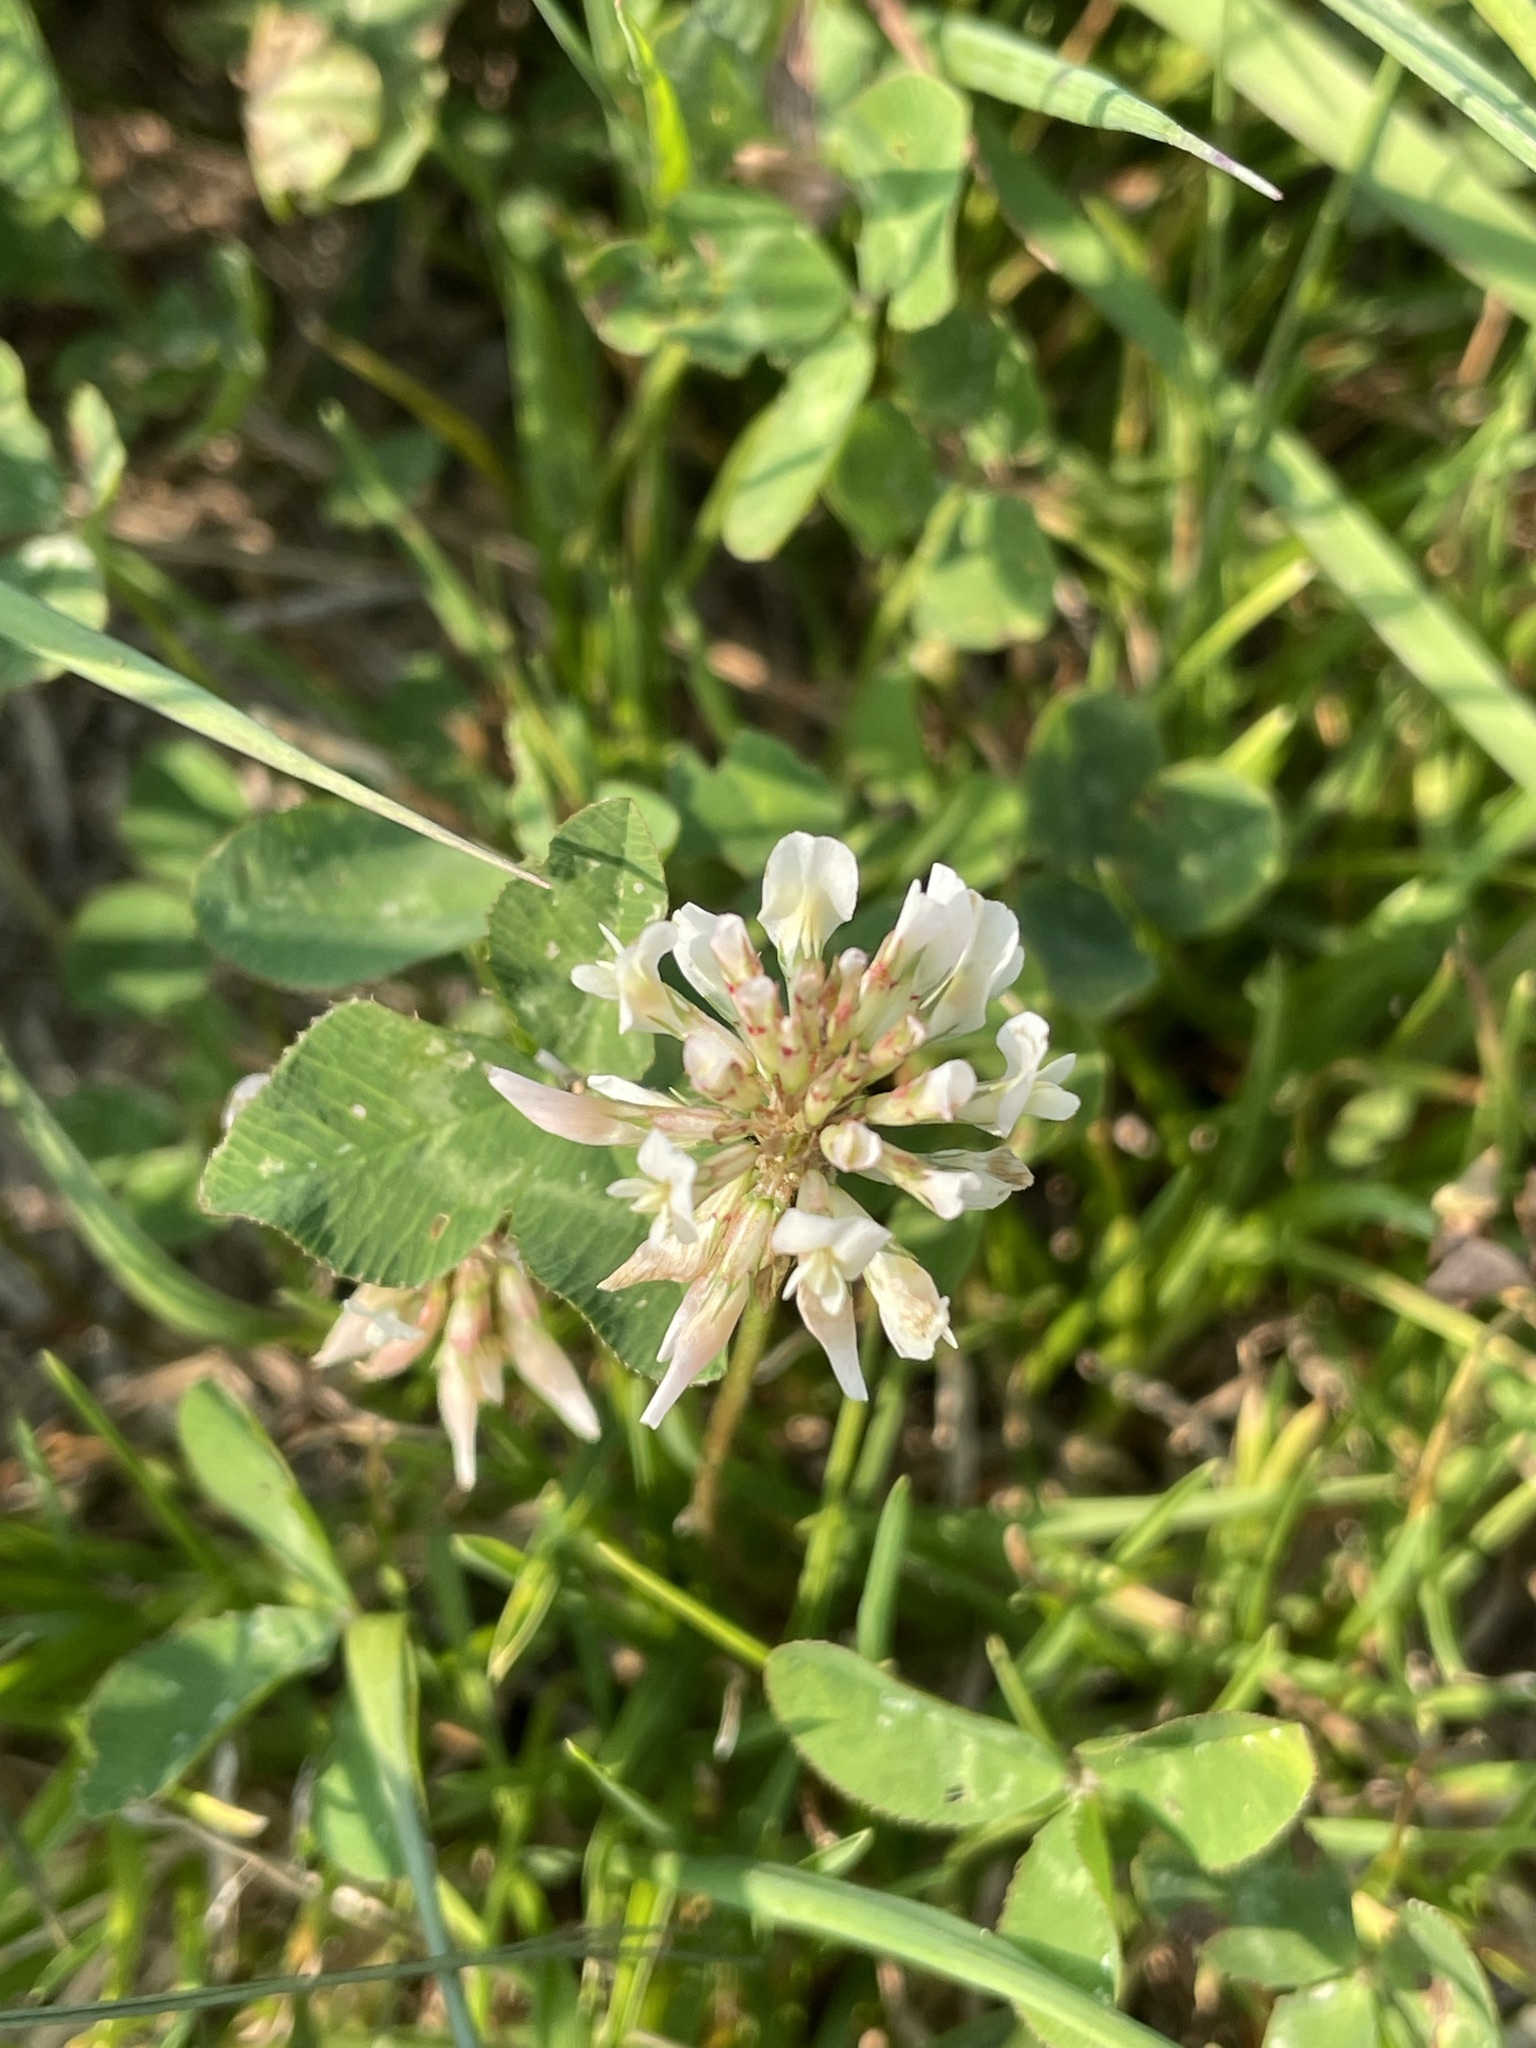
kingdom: Plantae
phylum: Tracheophyta
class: Magnoliopsida
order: Fabales
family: Fabaceae
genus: Trifolium
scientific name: Trifolium repens
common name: White clover
